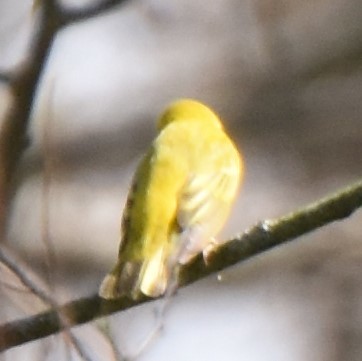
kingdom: Animalia
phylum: Chordata
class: Aves
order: Passeriformes
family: Parulidae
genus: Setophaga
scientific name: Setophaga petechia
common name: Yellow warbler
